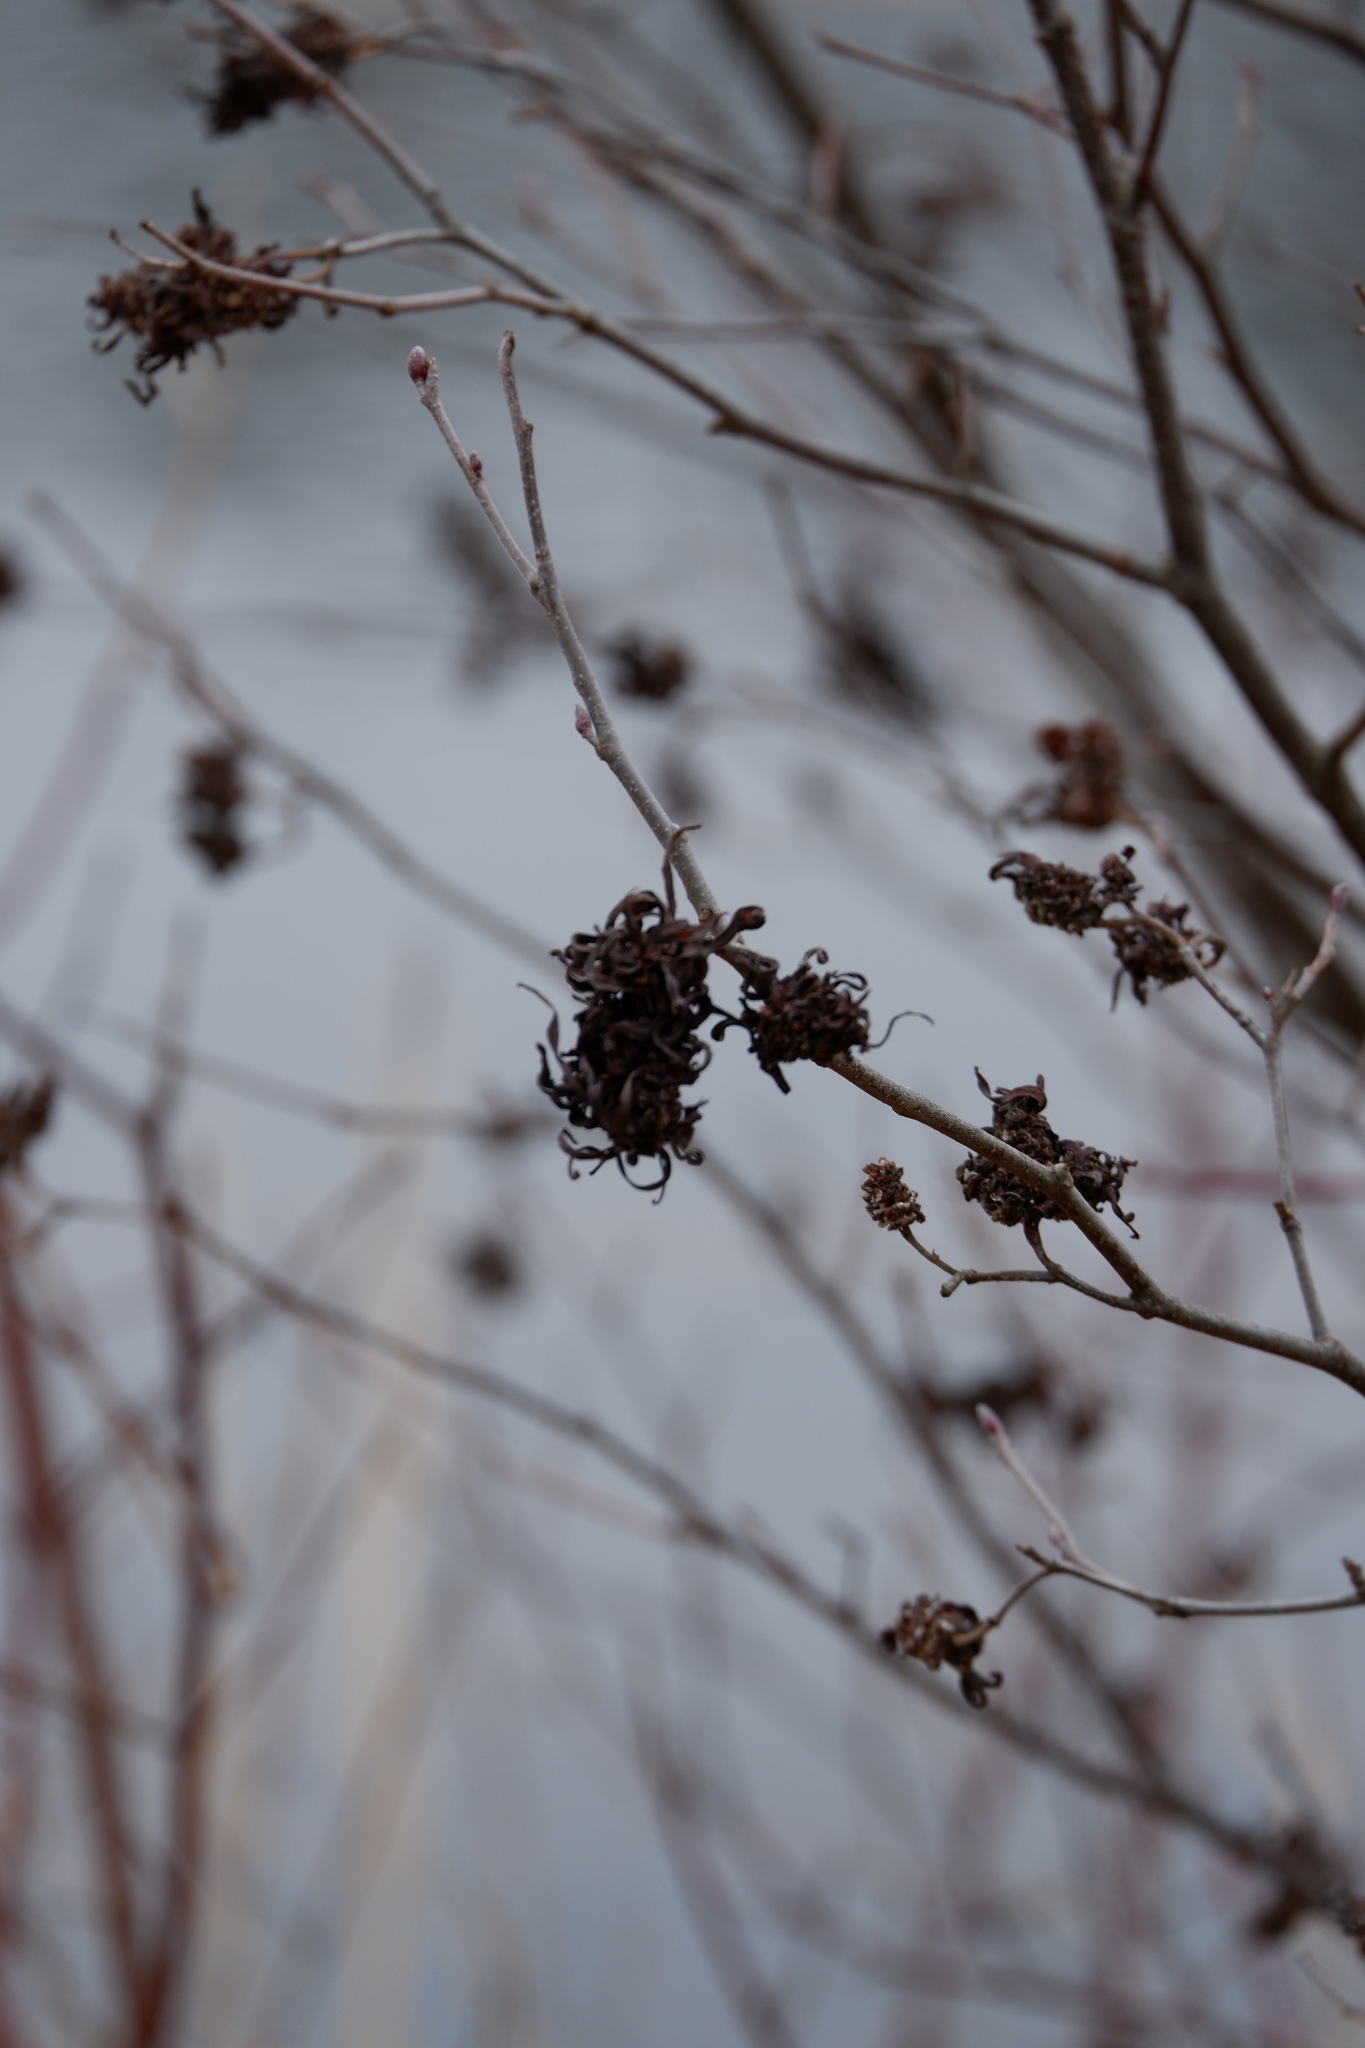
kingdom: Fungi
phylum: Ascomycota
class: Taphrinomycetes
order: Taphrinales
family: Taphrinaceae
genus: Taphrina
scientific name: Taphrina robinsoniana
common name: Eastern american alder tongue gall fungus
